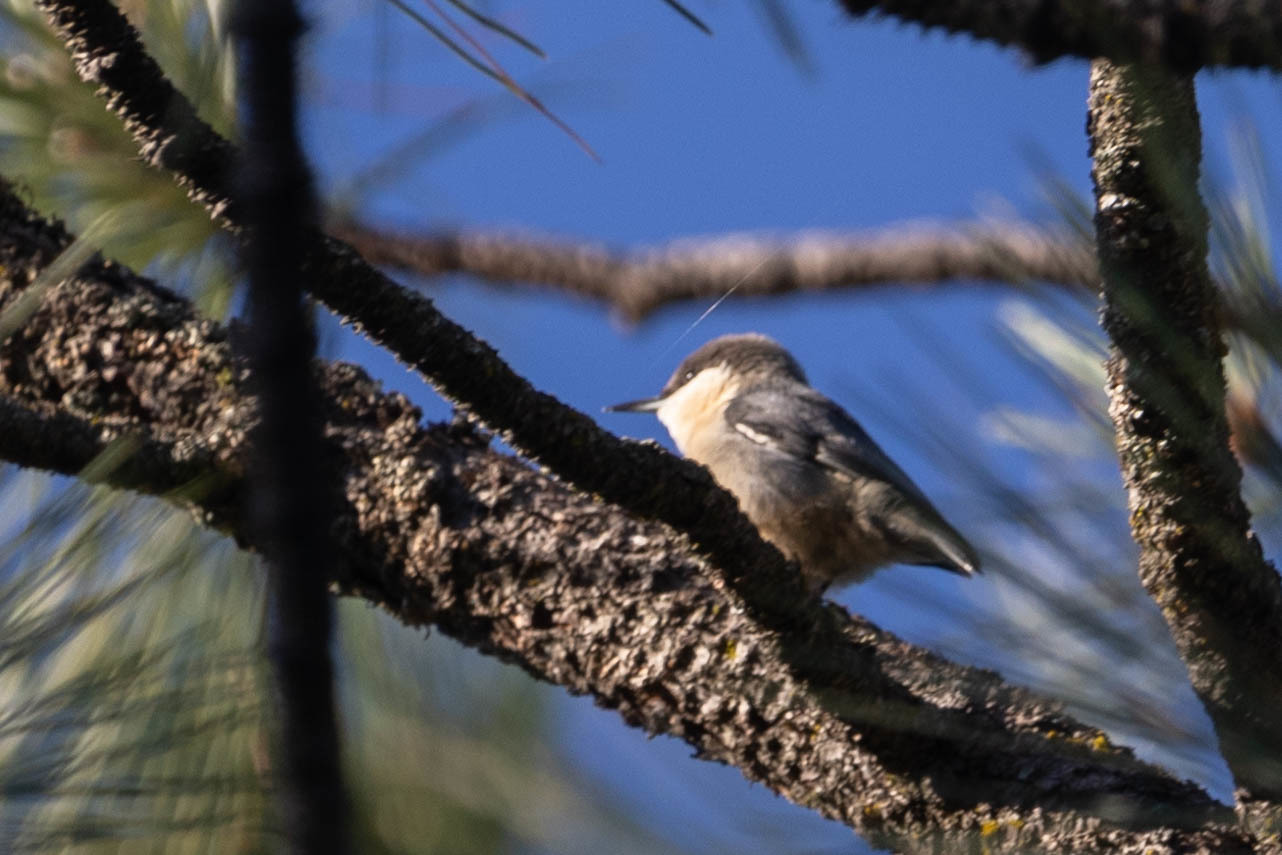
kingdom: Animalia
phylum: Chordata
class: Aves
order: Passeriformes
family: Sittidae
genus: Sitta
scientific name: Sitta pygmaea
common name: Pygmy nuthatch
